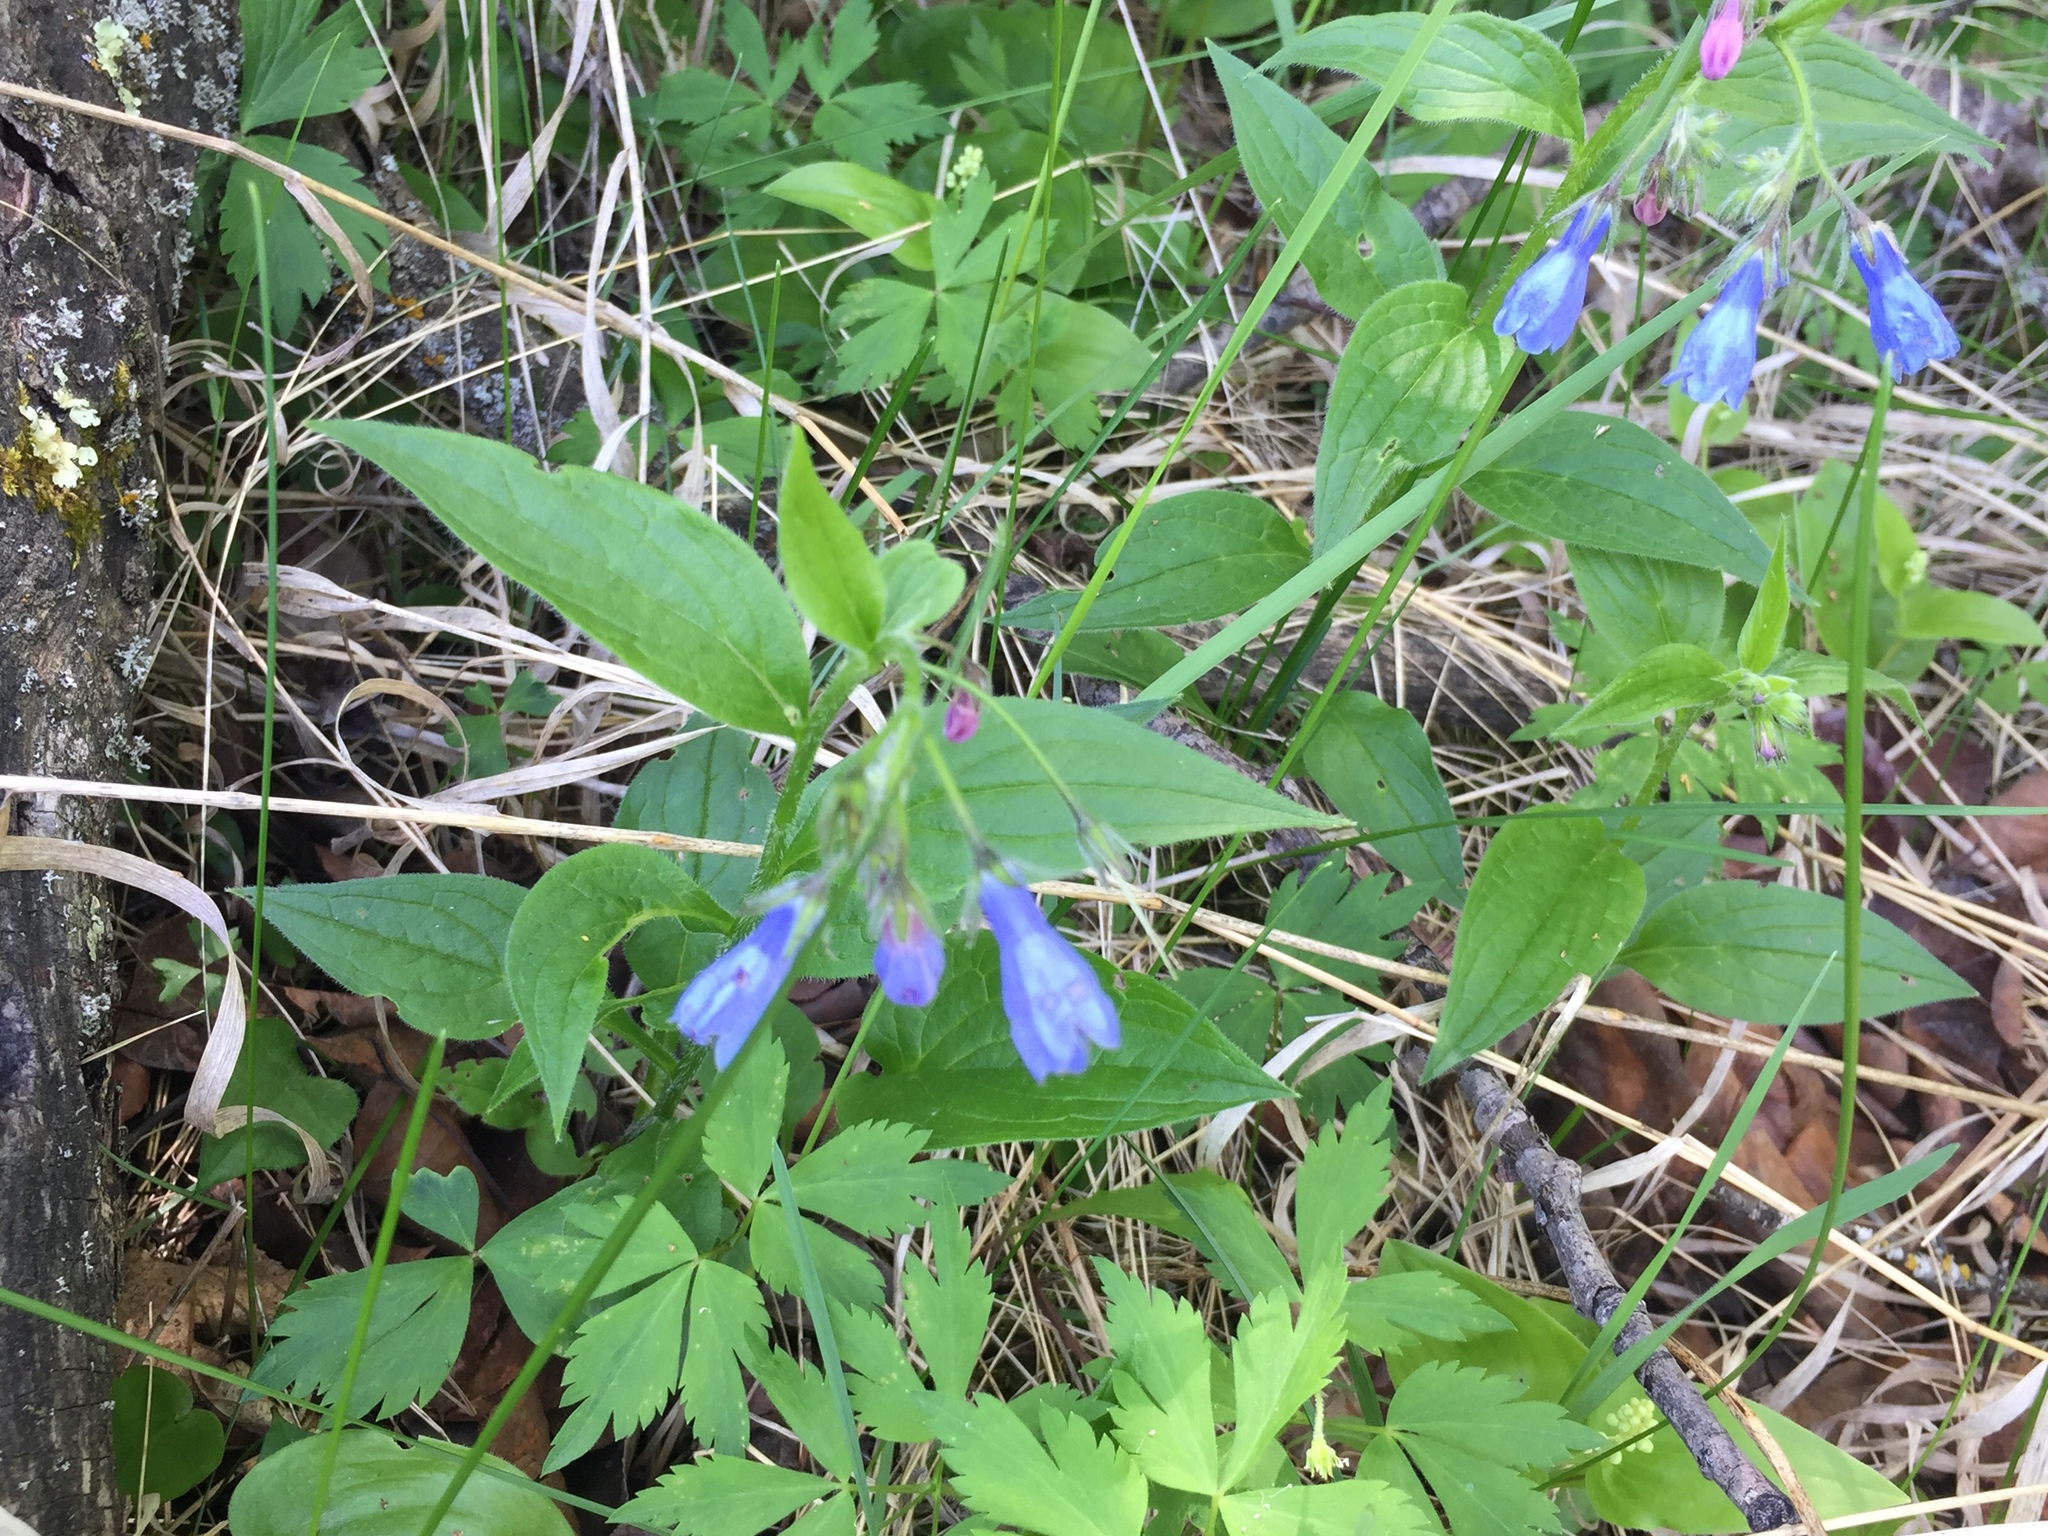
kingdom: Plantae
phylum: Tracheophyta
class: Magnoliopsida
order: Boraginales
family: Boraginaceae
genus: Mertensia
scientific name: Mertensia paniculata
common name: Panicled bluebells
